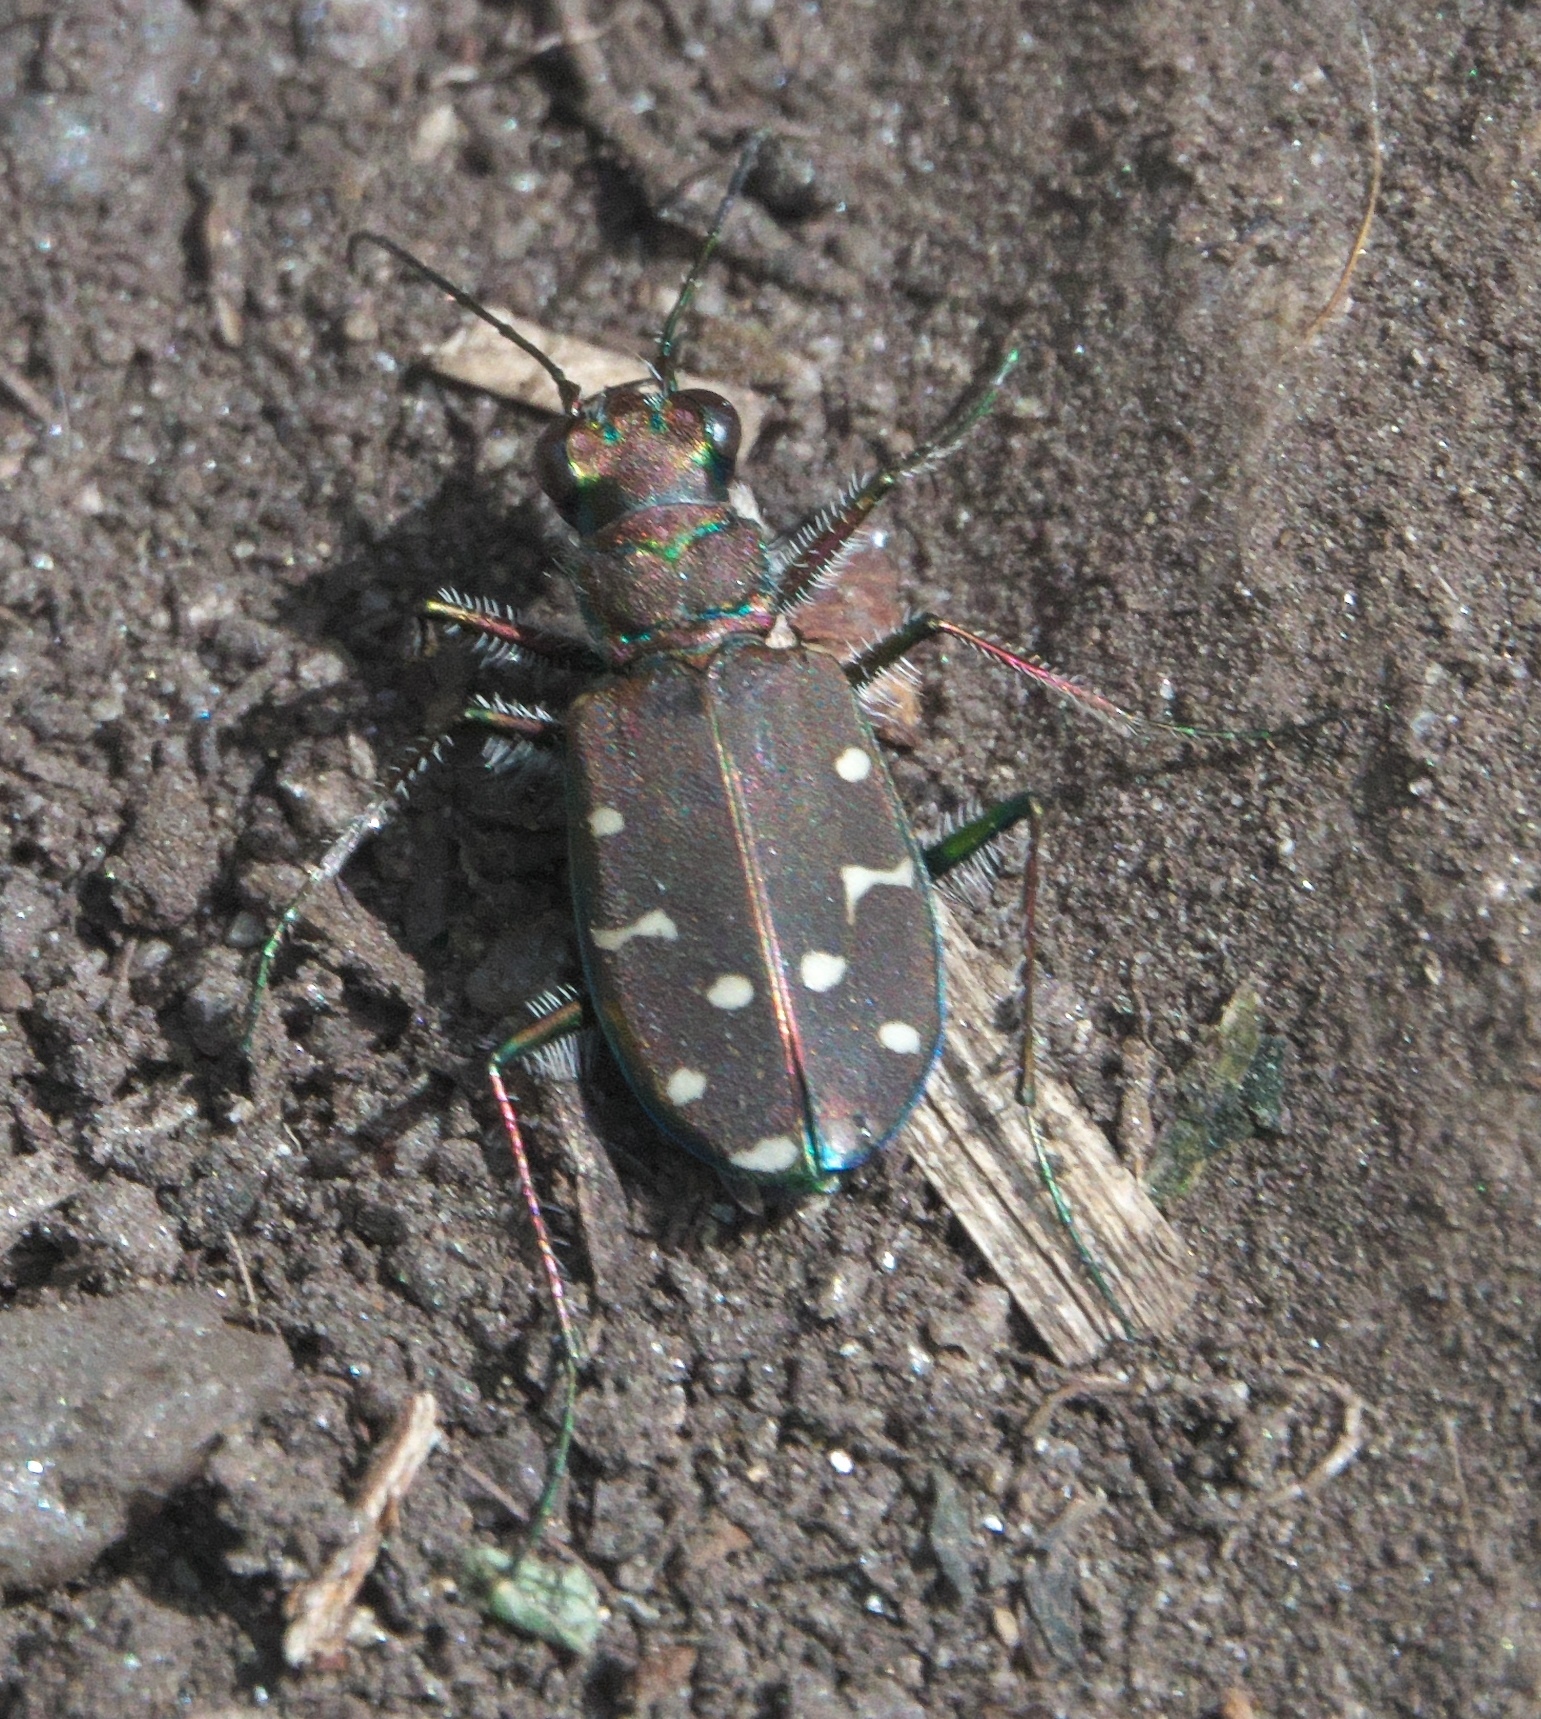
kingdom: Animalia
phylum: Arthropoda
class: Insecta
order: Coleoptera
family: Carabidae
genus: Cicindela
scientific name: Cicindela oregona
